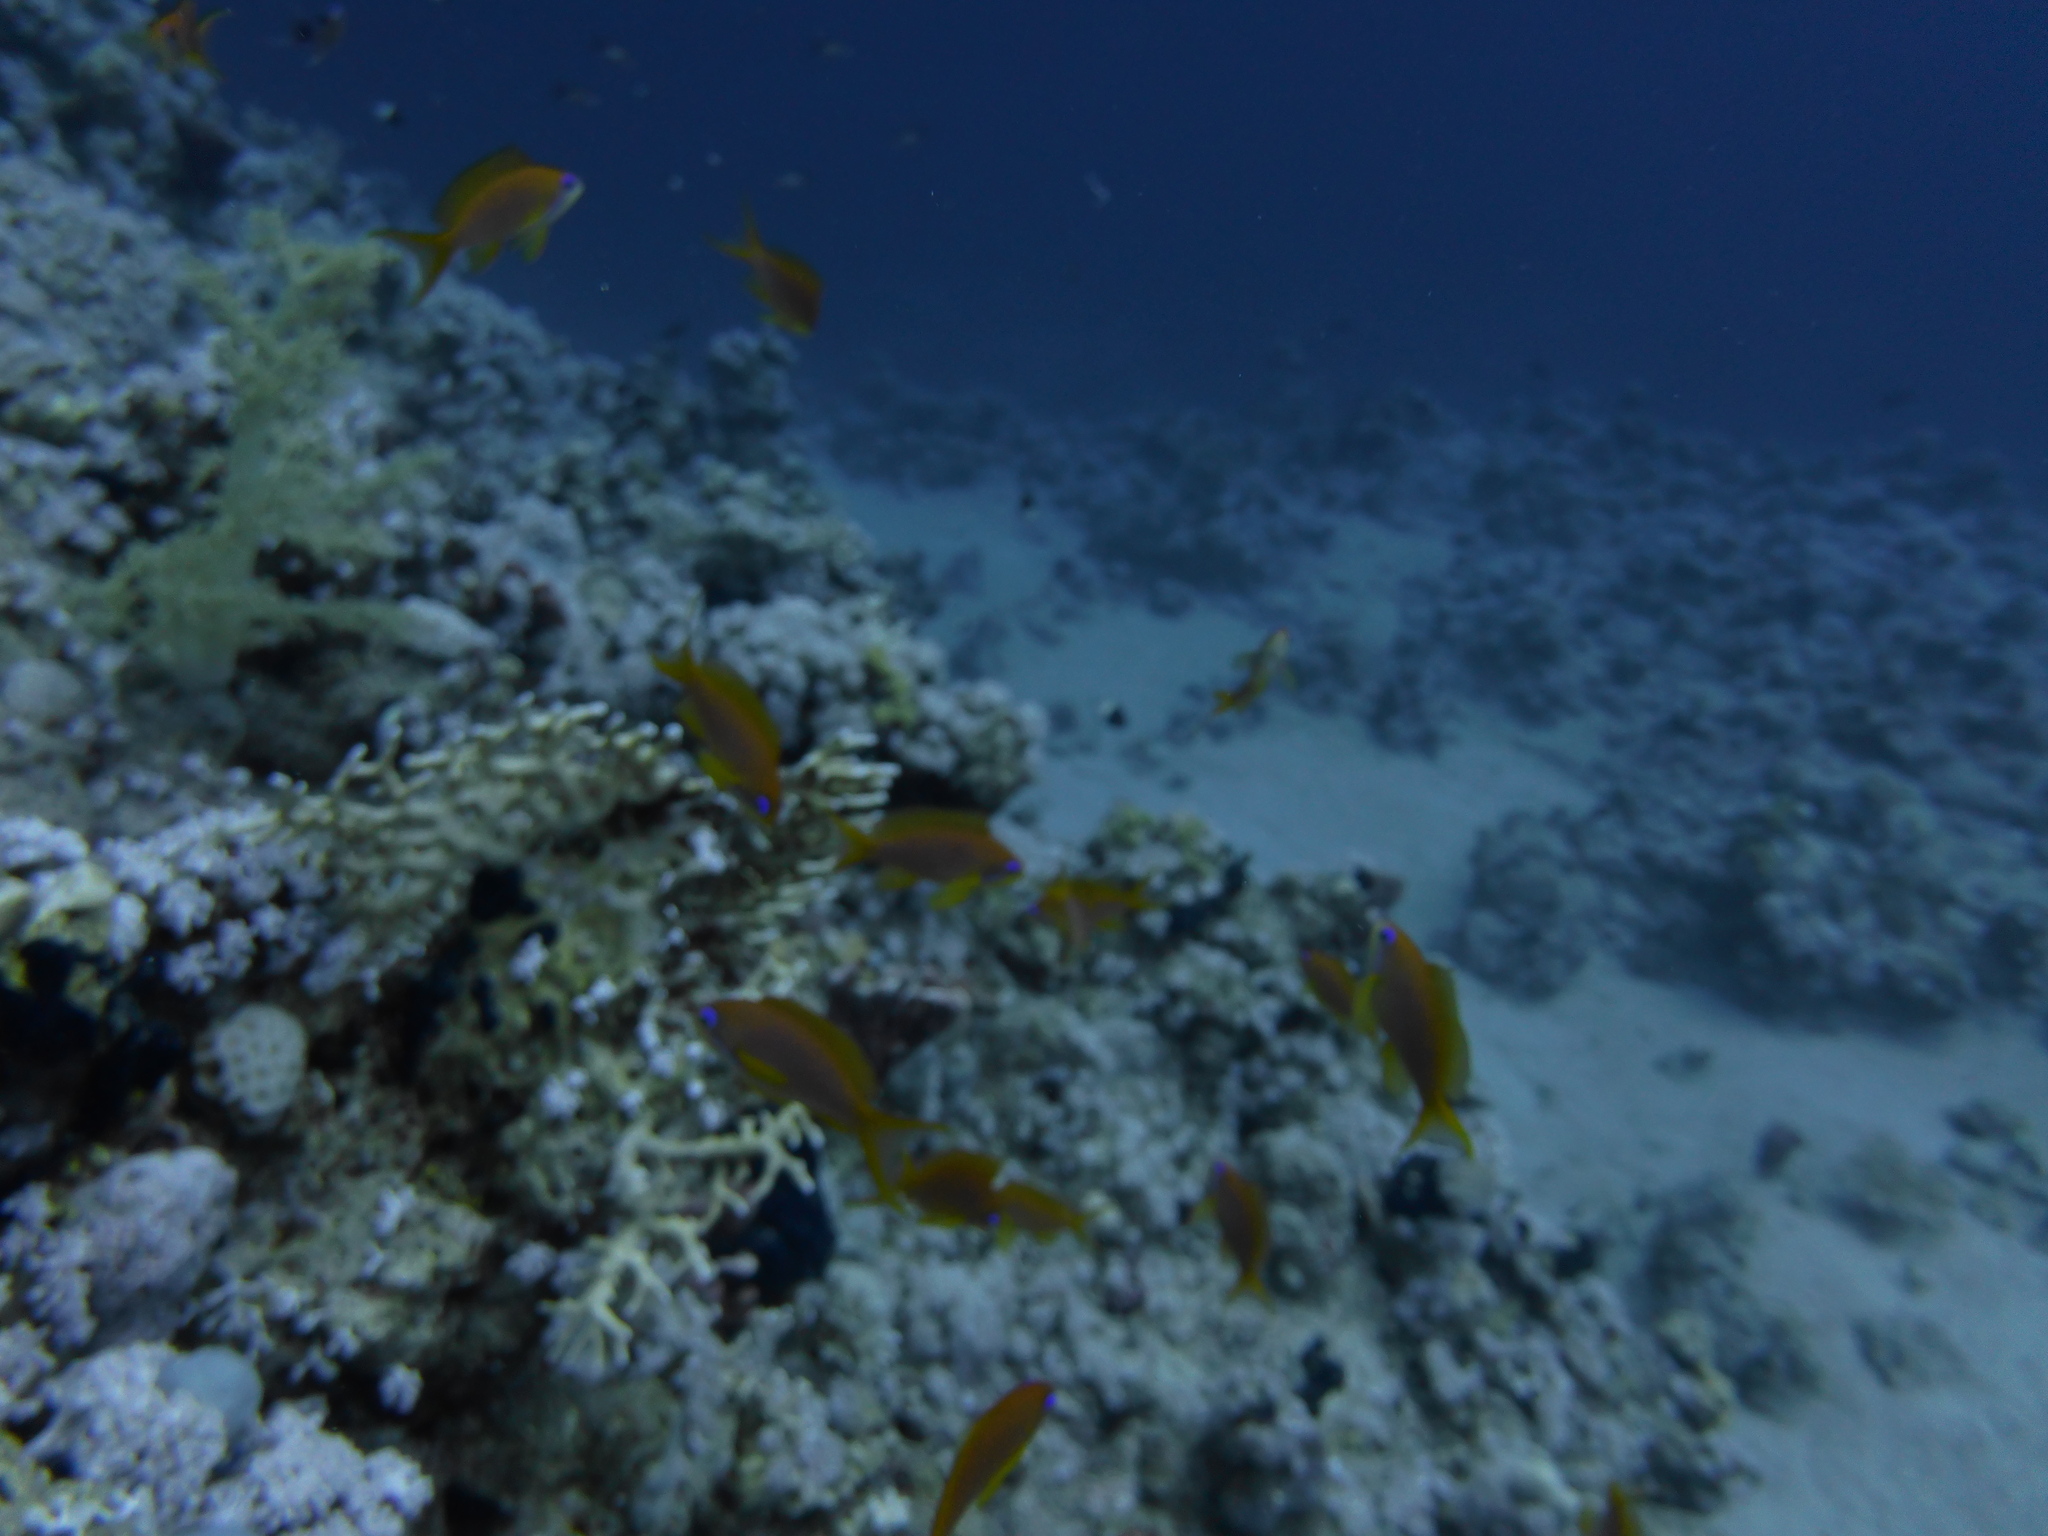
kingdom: Animalia
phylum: Chordata
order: Perciformes
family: Serranidae
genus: Pseudanthias
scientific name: Pseudanthias squamipinnis
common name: Scalefin anthias
